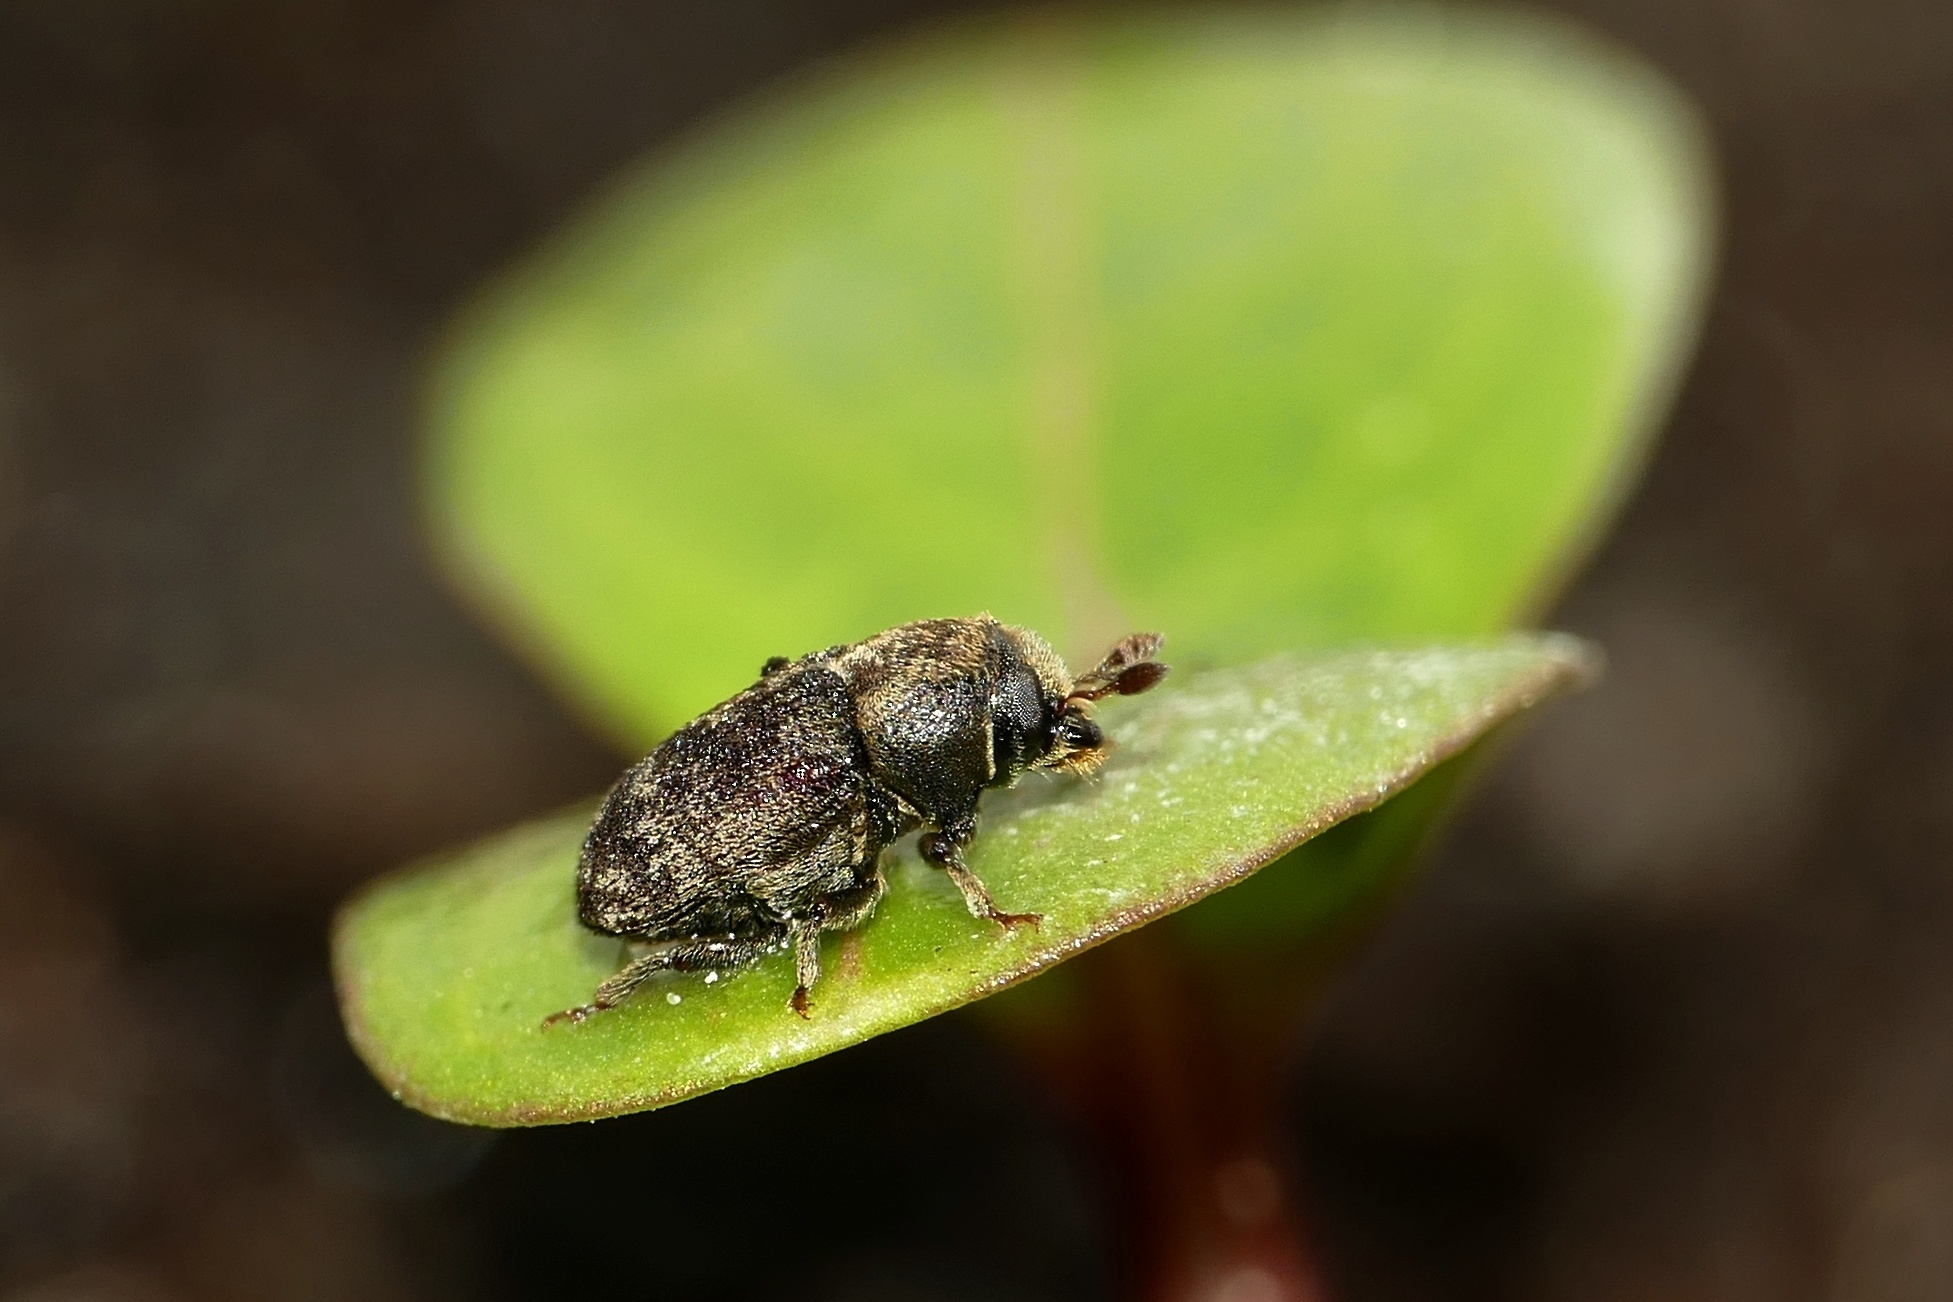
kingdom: Animalia
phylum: Arthropoda
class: Insecta
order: Coleoptera
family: Curculionidae
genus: Hylesinus
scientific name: Hylesinus varius
